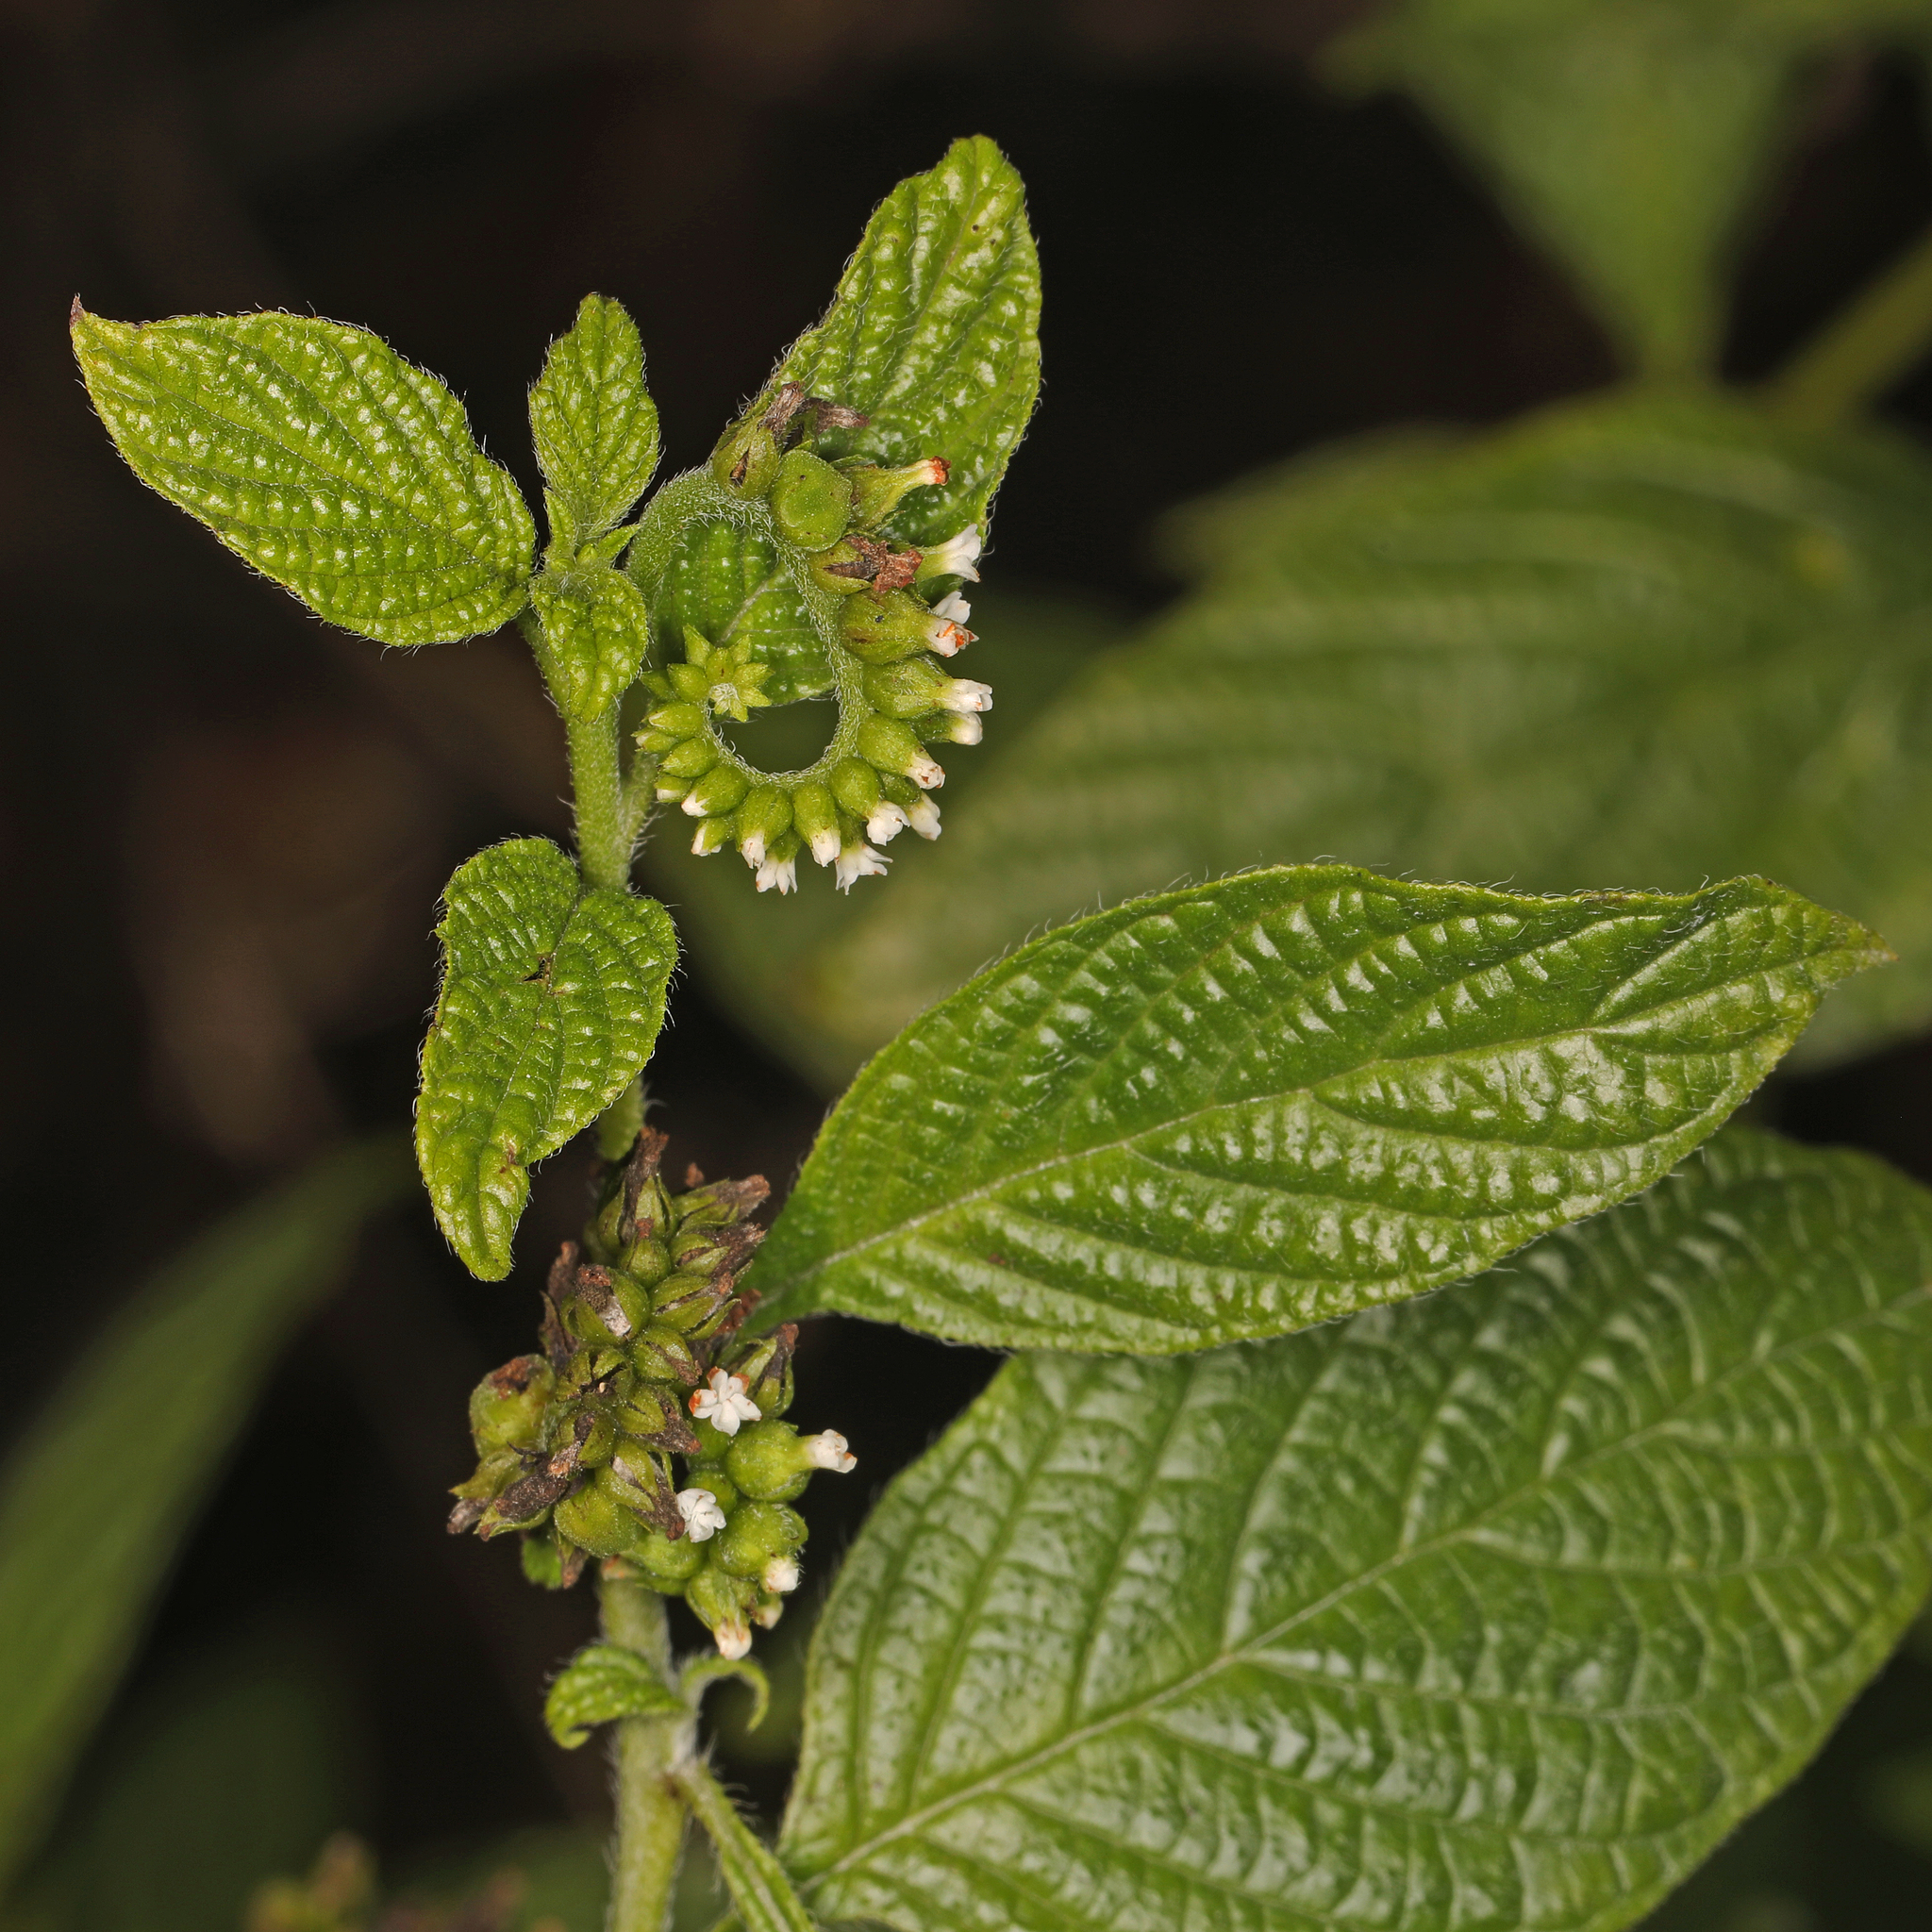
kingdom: Plantae
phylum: Tracheophyta
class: Magnoliopsida
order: Boraginales
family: Heliotropiaceae
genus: Heliotropium
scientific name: Heliotropium angiospermum
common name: Eye bright
